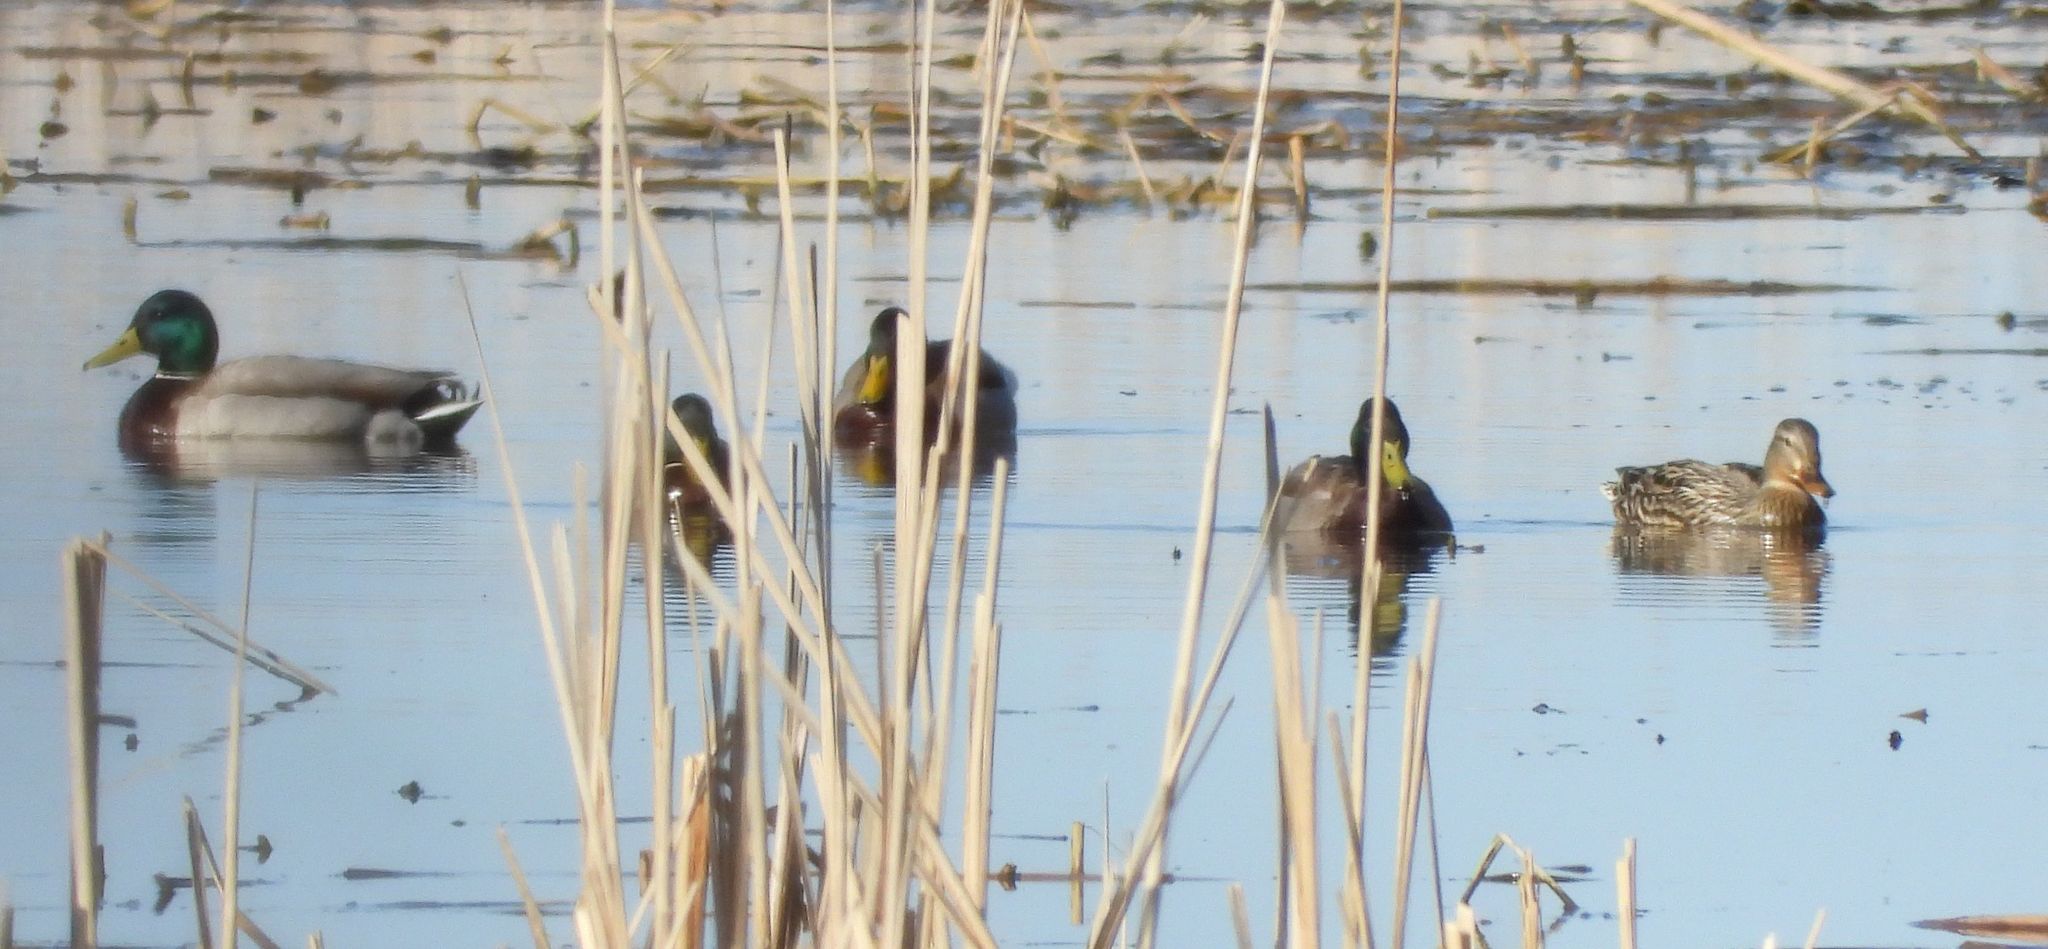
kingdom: Animalia
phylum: Chordata
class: Aves
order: Anseriformes
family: Anatidae
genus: Anas
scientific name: Anas platyrhynchos
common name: Mallard
